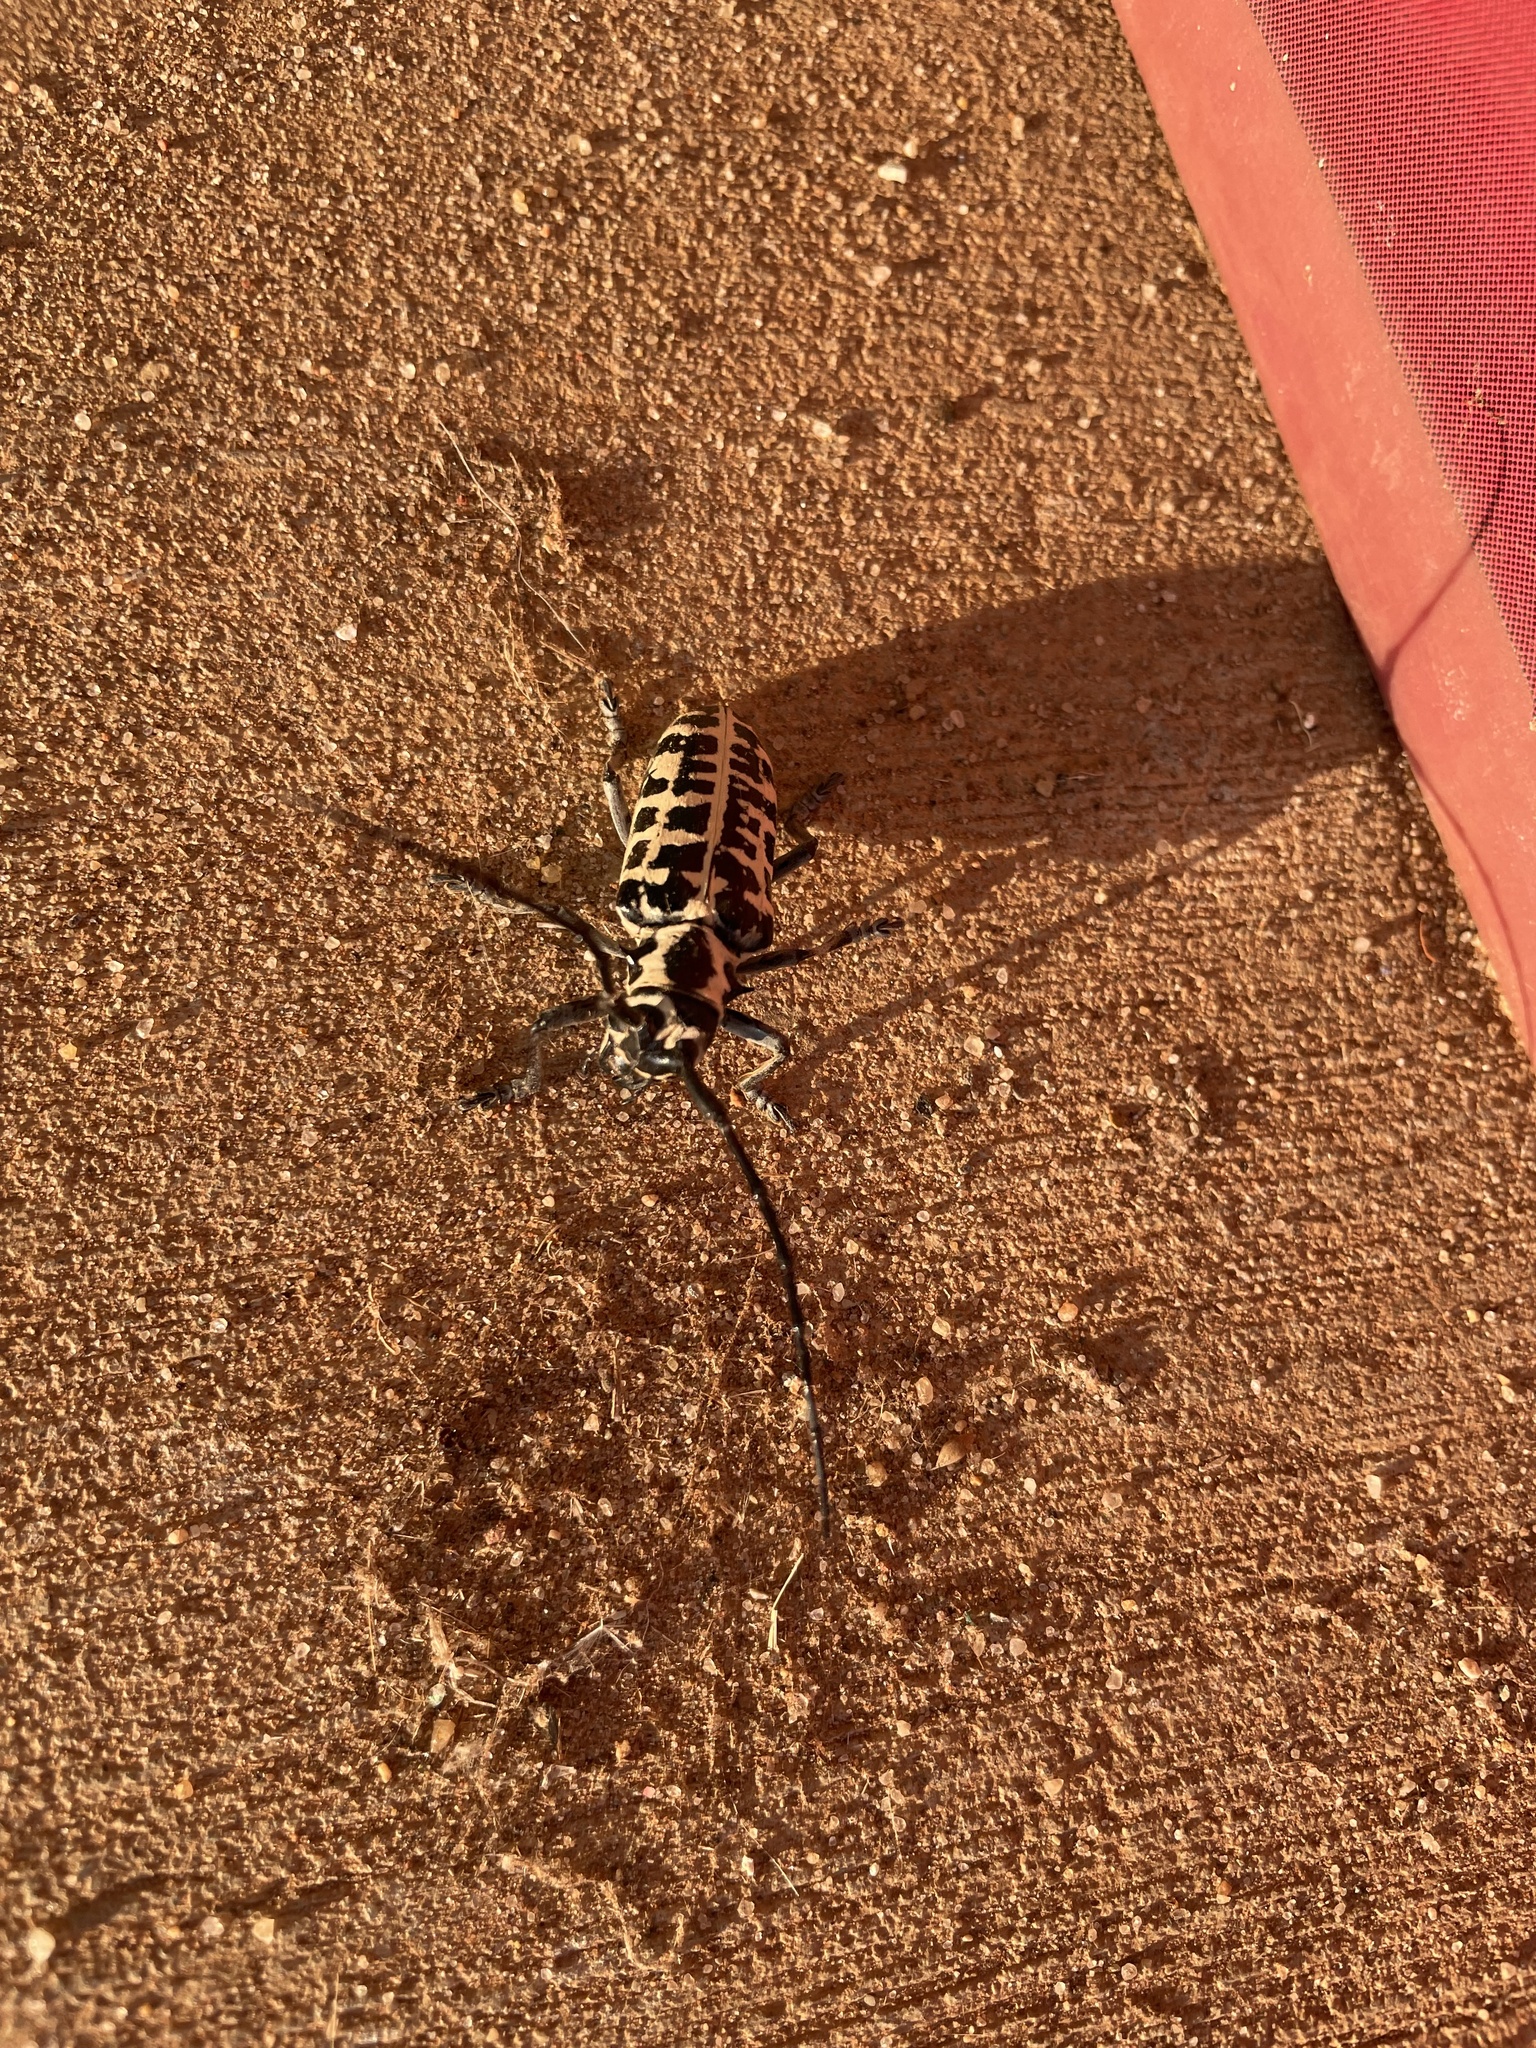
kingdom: Animalia
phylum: Arthropoda
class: Insecta
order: Coleoptera
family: Cerambycidae
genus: Plectrodera
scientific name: Plectrodera scalator
